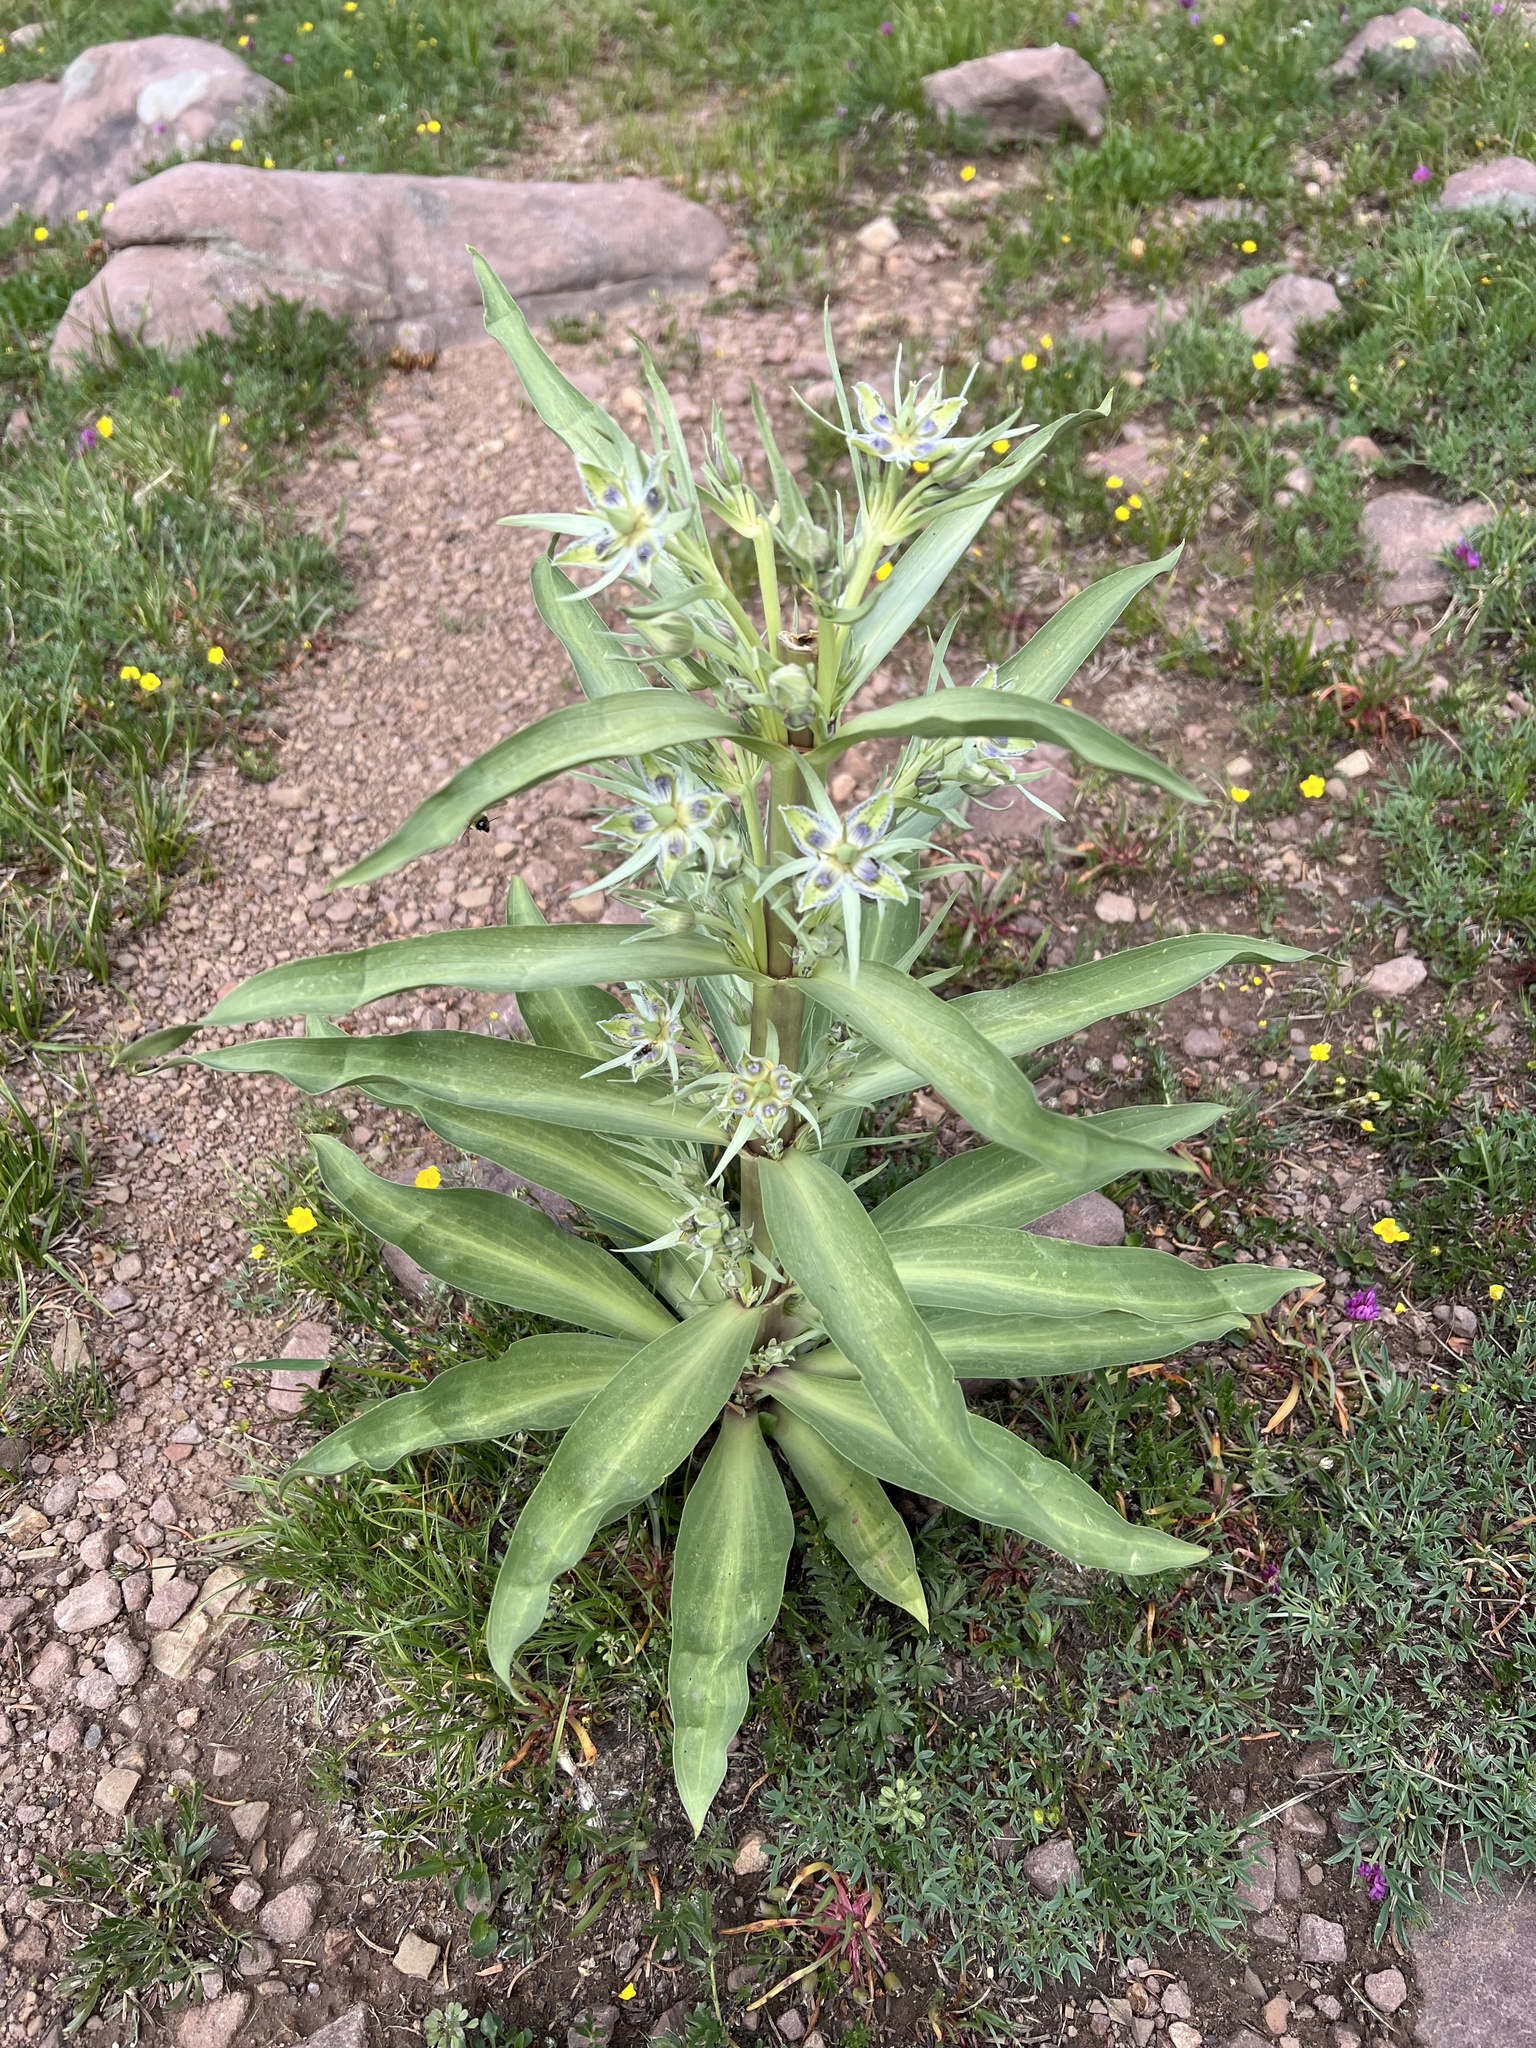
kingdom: Plantae
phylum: Tracheophyta
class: Magnoliopsida
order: Gentianales
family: Gentianaceae
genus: Frasera
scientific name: Frasera speciosa
